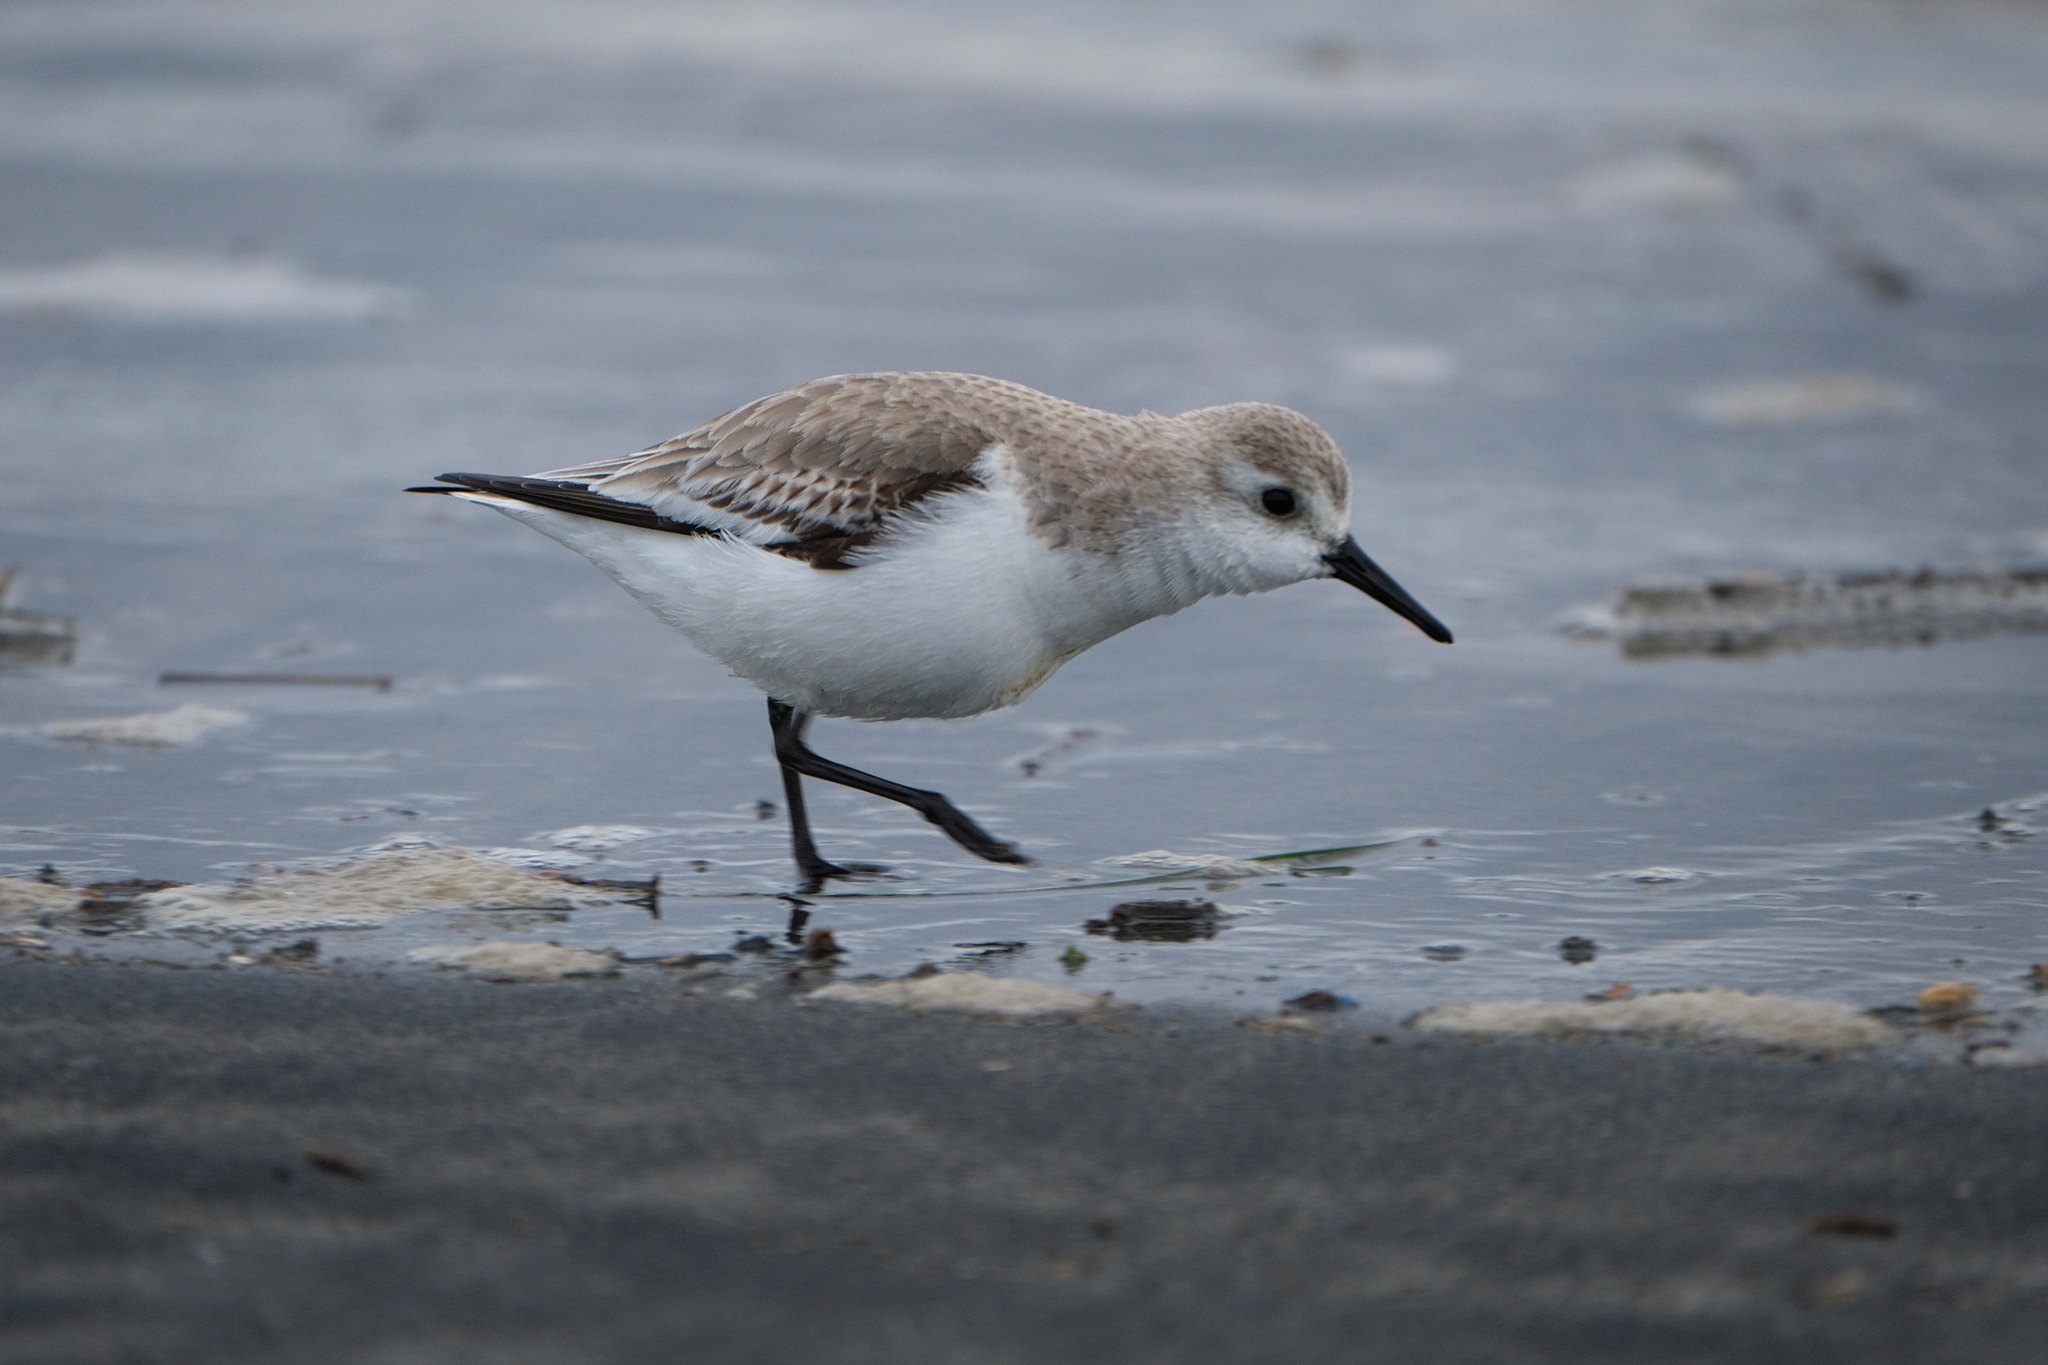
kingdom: Animalia
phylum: Chordata
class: Aves
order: Charadriiformes
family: Scolopacidae
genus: Calidris
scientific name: Calidris alba
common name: Sanderling
